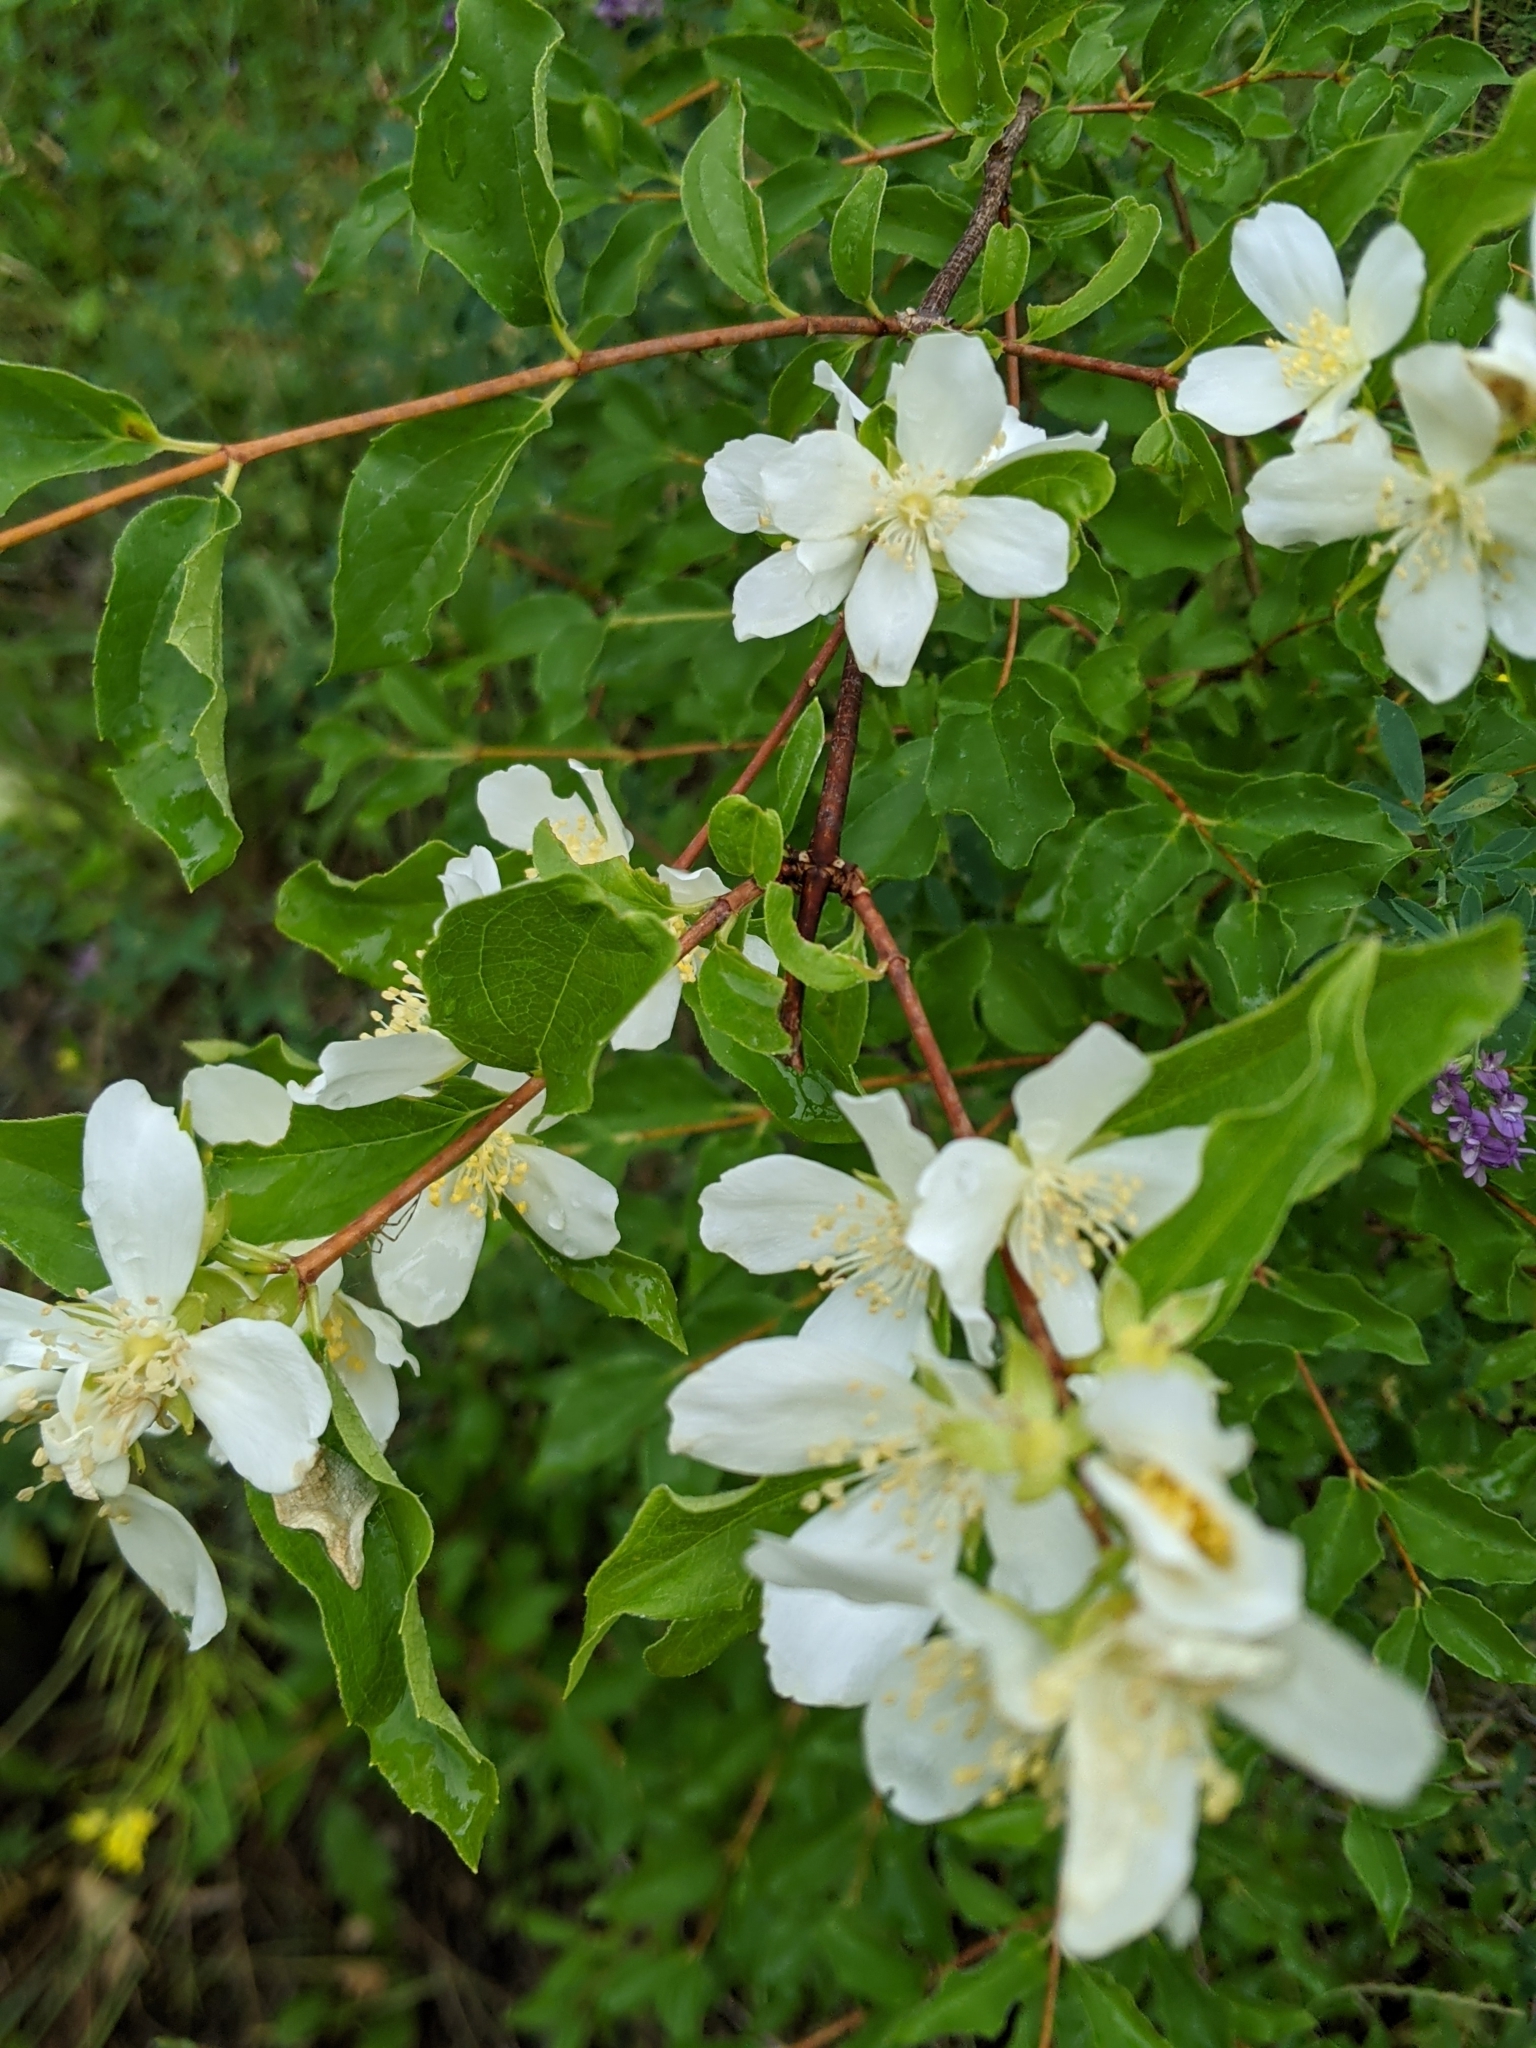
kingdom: Plantae
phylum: Tracheophyta
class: Magnoliopsida
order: Cornales
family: Hydrangeaceae
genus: Philadelphus
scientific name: Philadelphus lewisii
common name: Lewis's mock orange
